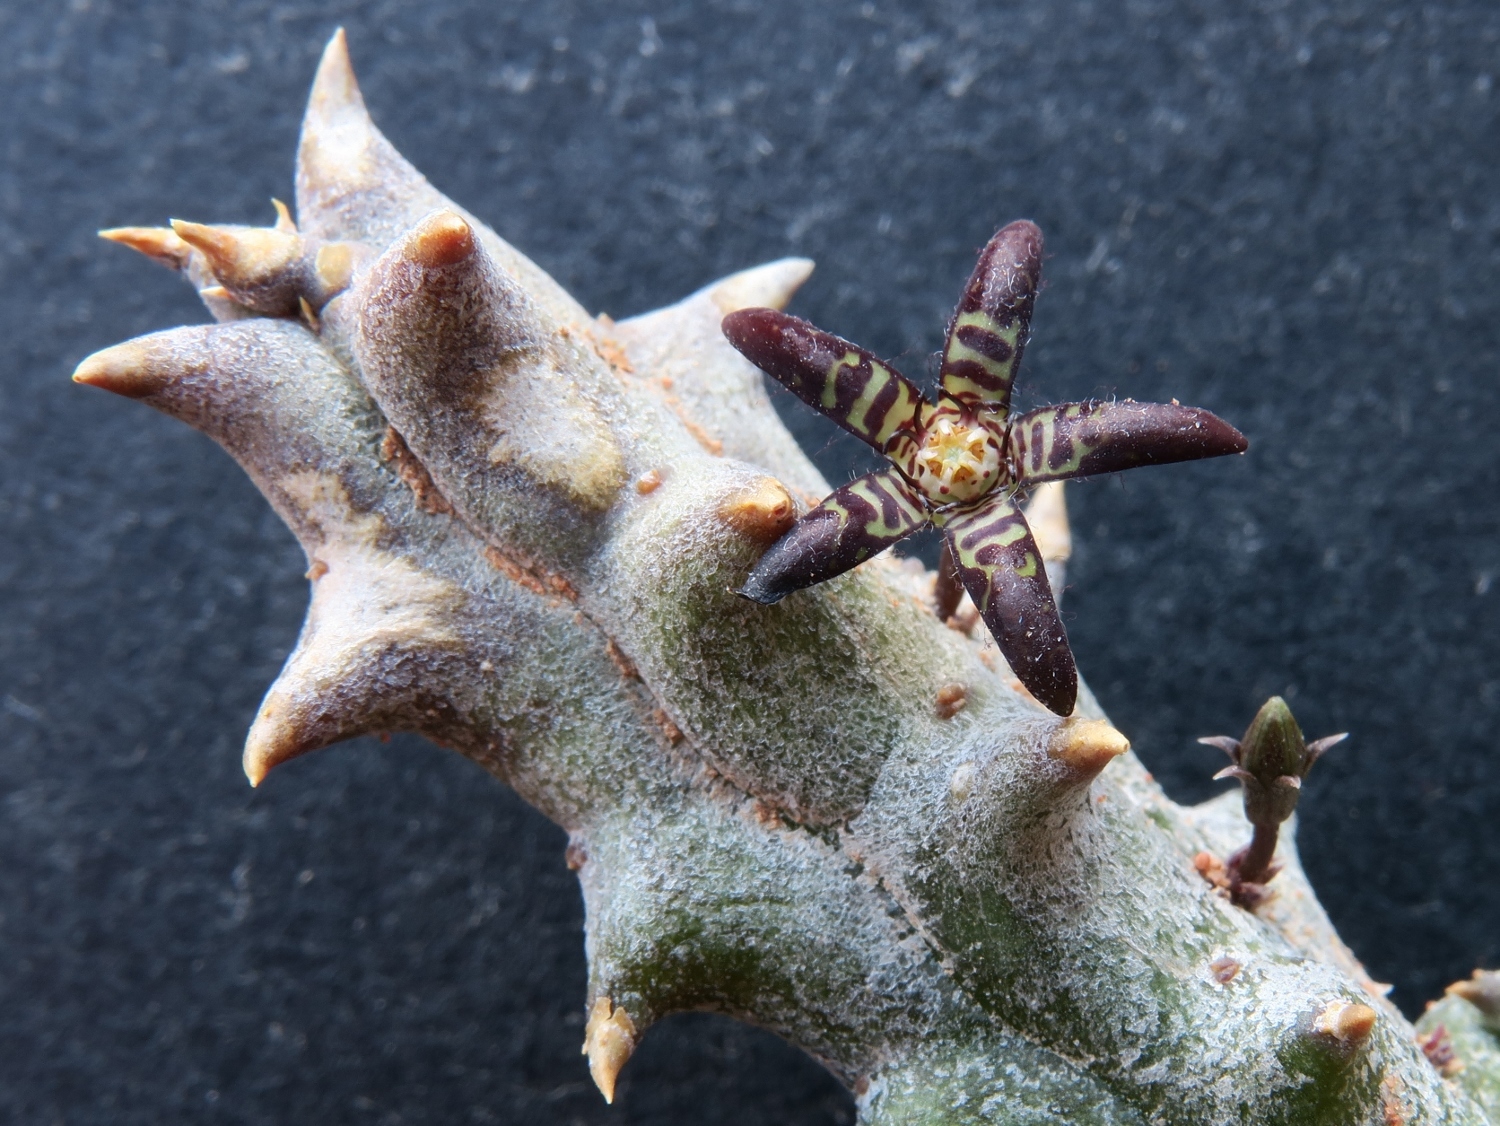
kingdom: Plantae
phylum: Tracheophyta
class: Magnoliopsida
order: Gentianales
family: Apocynaceae
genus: Ceropegia
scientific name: Ceropegia parvioriflora
